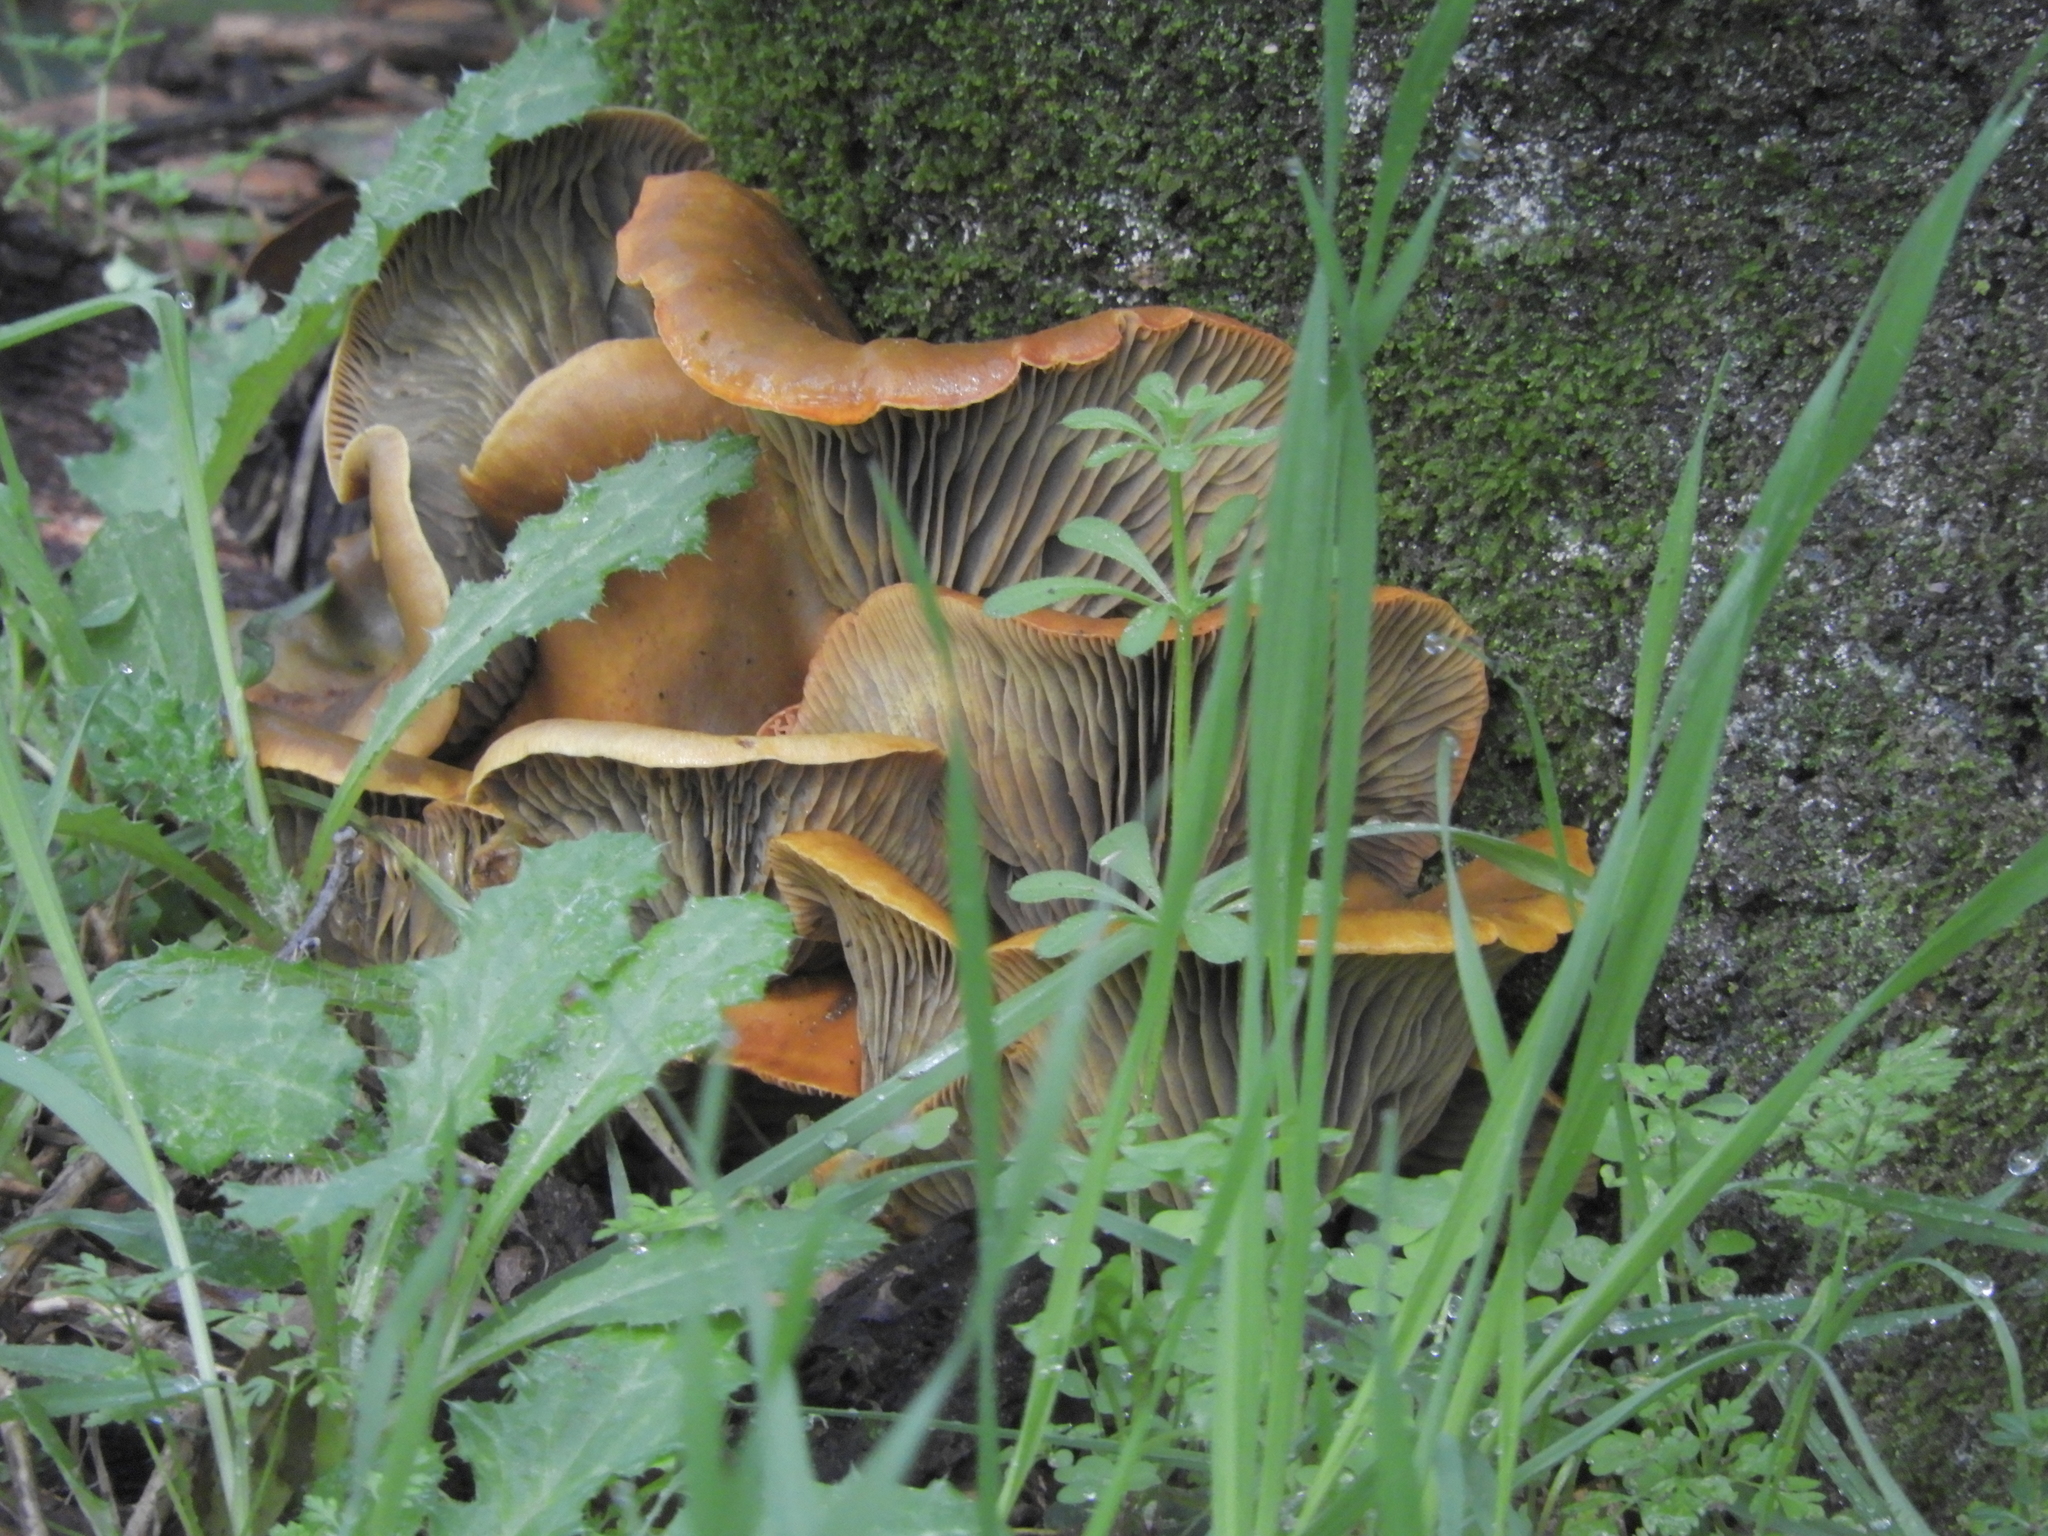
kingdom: Fungi
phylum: Basidiomycota
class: Agaricomycetes
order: Agaricales
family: Omphalotaceae
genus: Omphalotus
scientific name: Omphalotus olivascens
